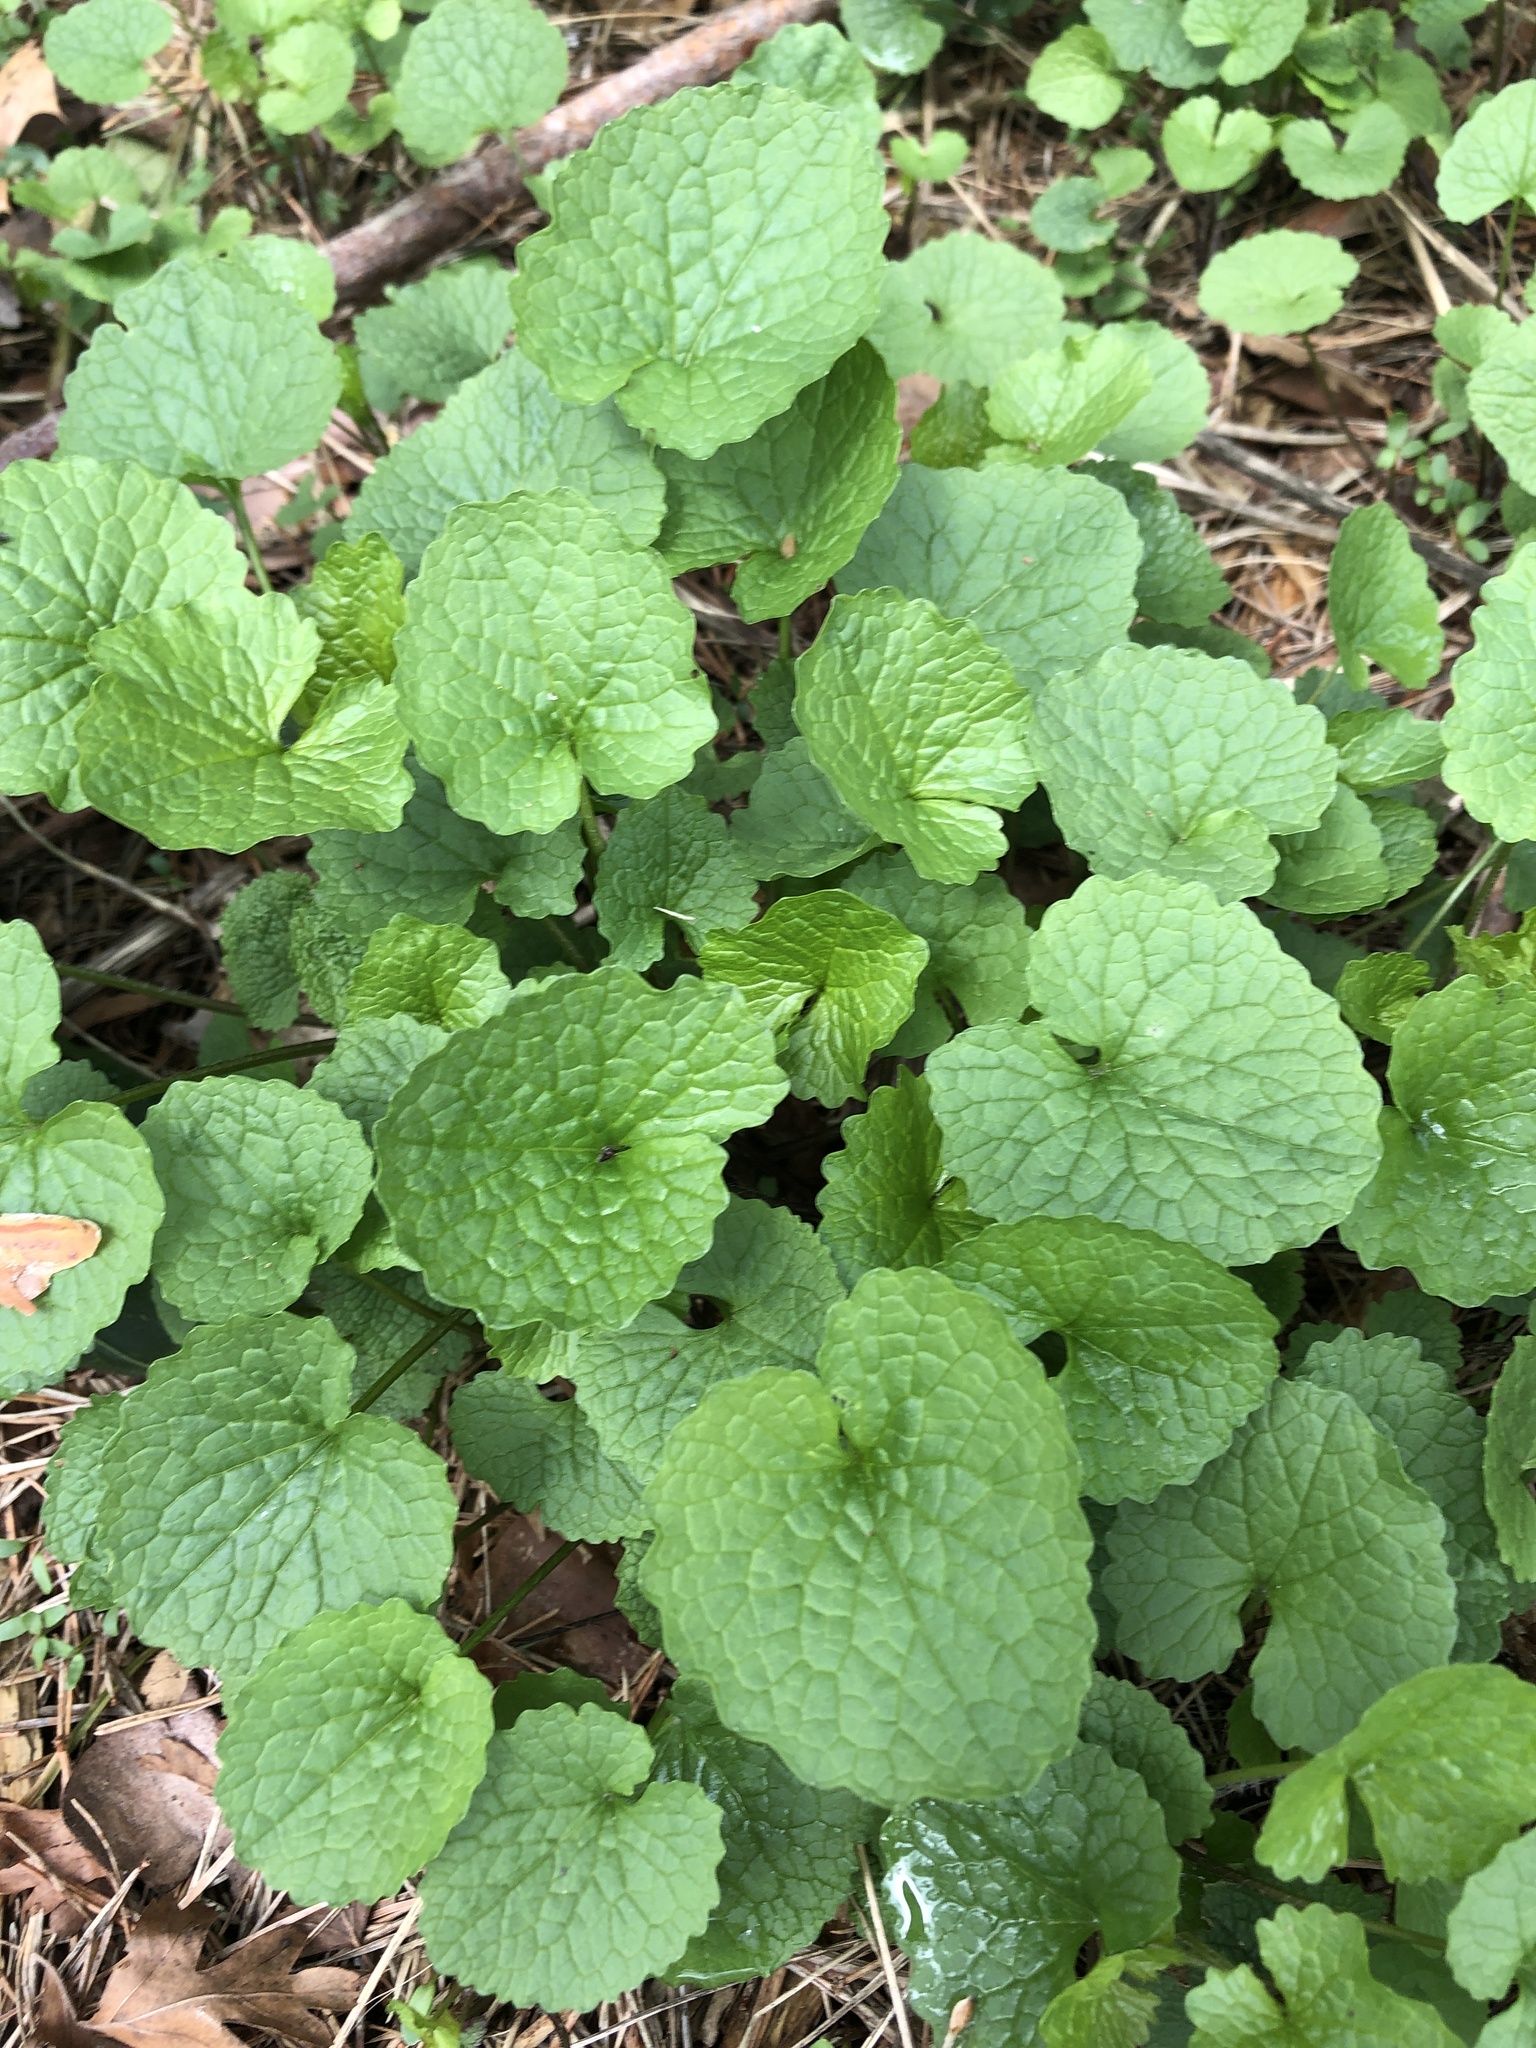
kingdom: Plantae
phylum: Tracheophyta
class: Magnoliopsida
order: Brassicales
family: Brassicaceae
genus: Alliaria
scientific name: Alliaria petiolata
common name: Garlic mustard
